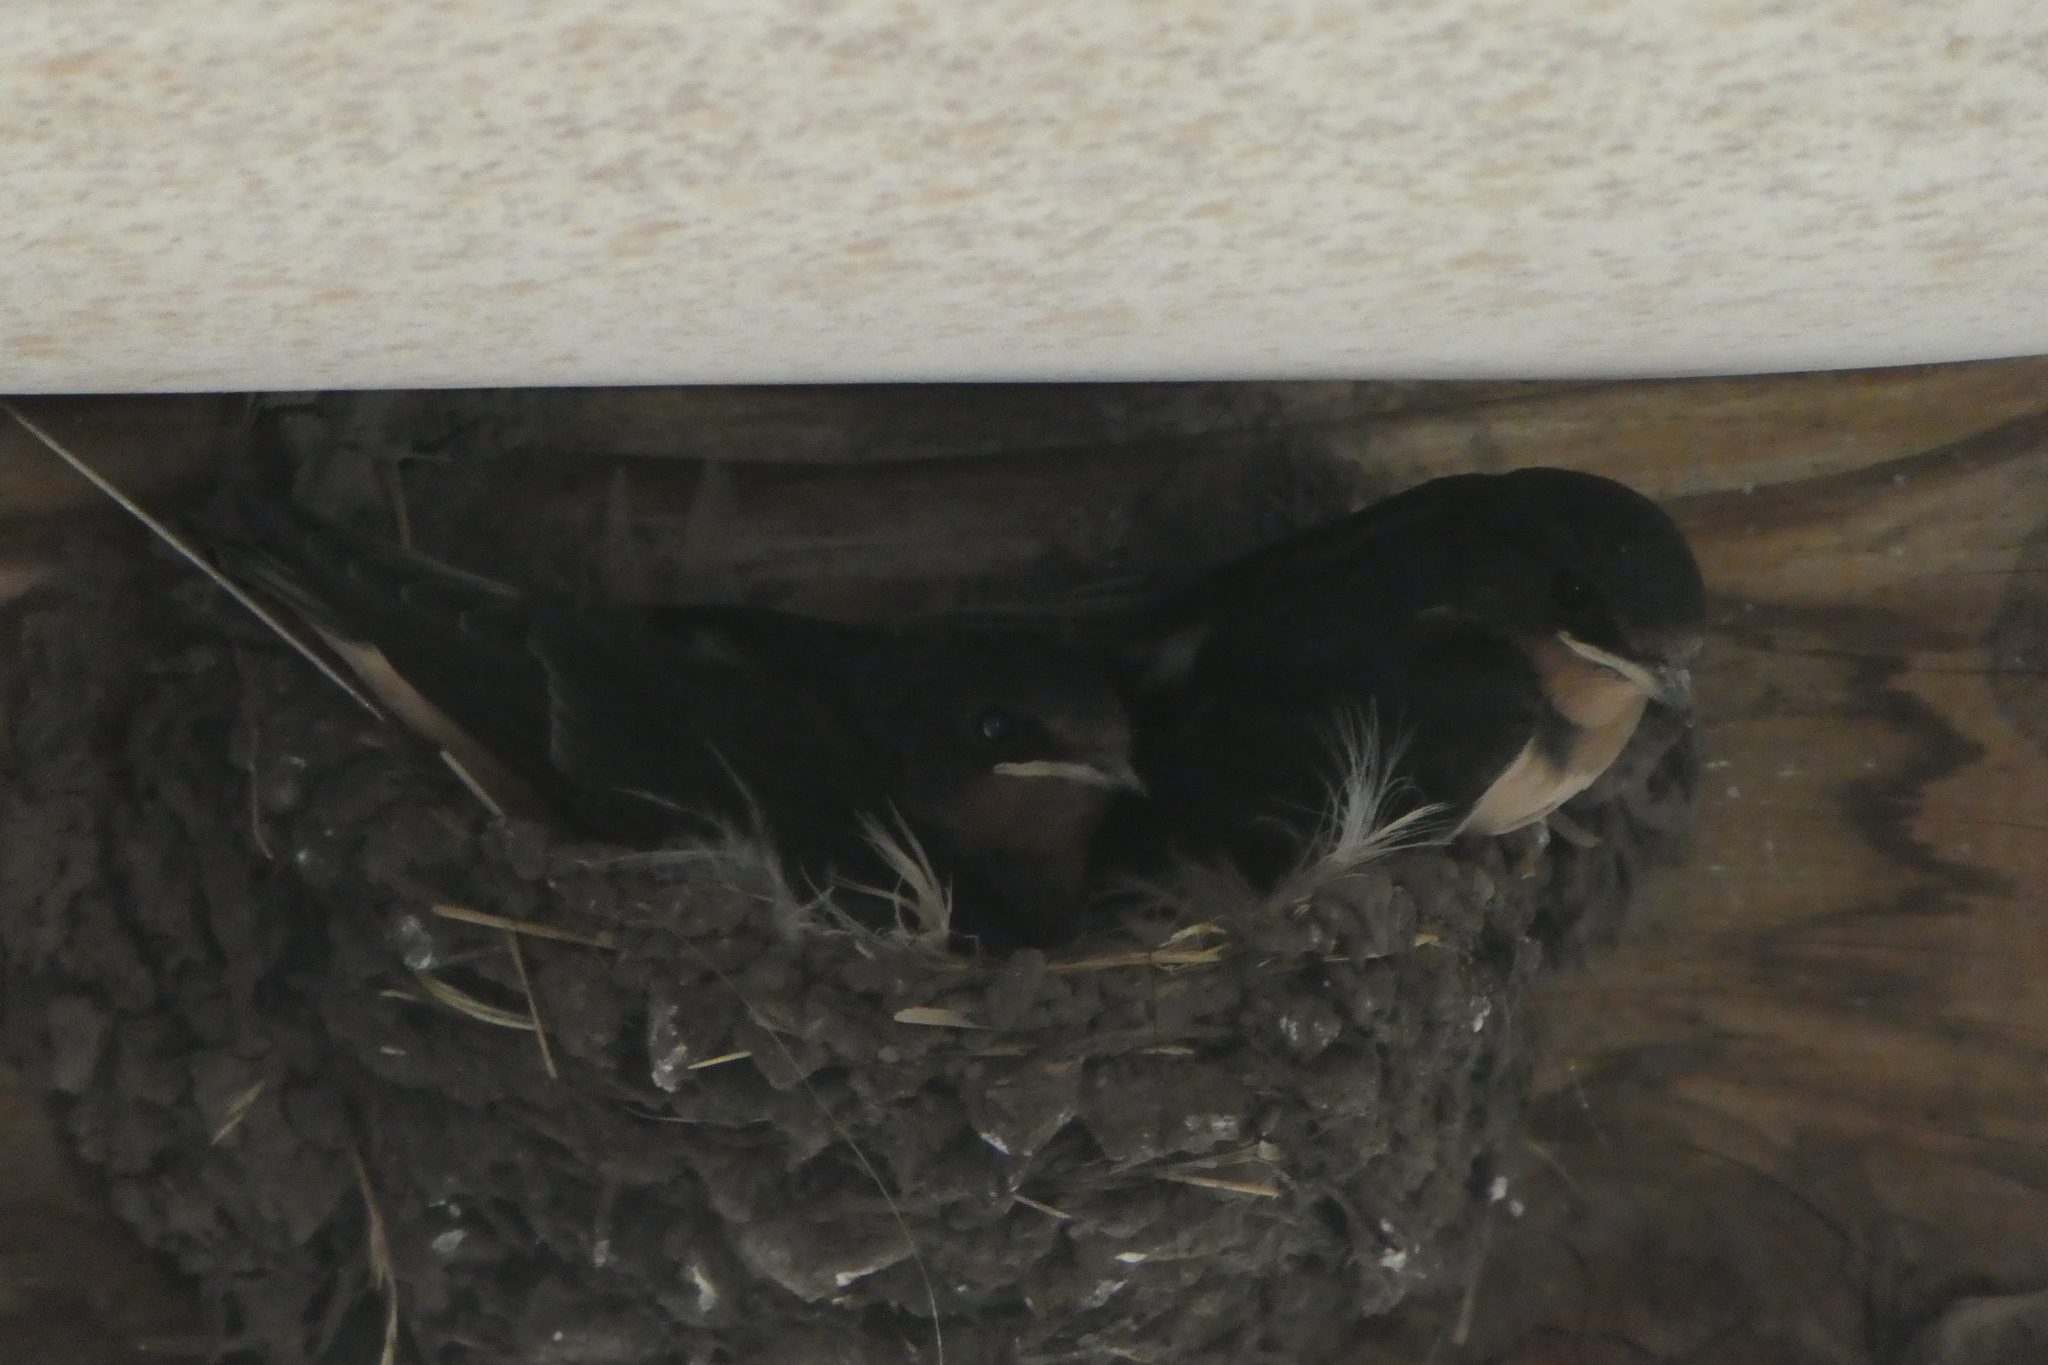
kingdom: Animalia
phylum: Chordata
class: Aves
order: Passeriformes
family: Hirundinidae
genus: Hirundo
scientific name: Hirundo rustica
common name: Barn swallow
